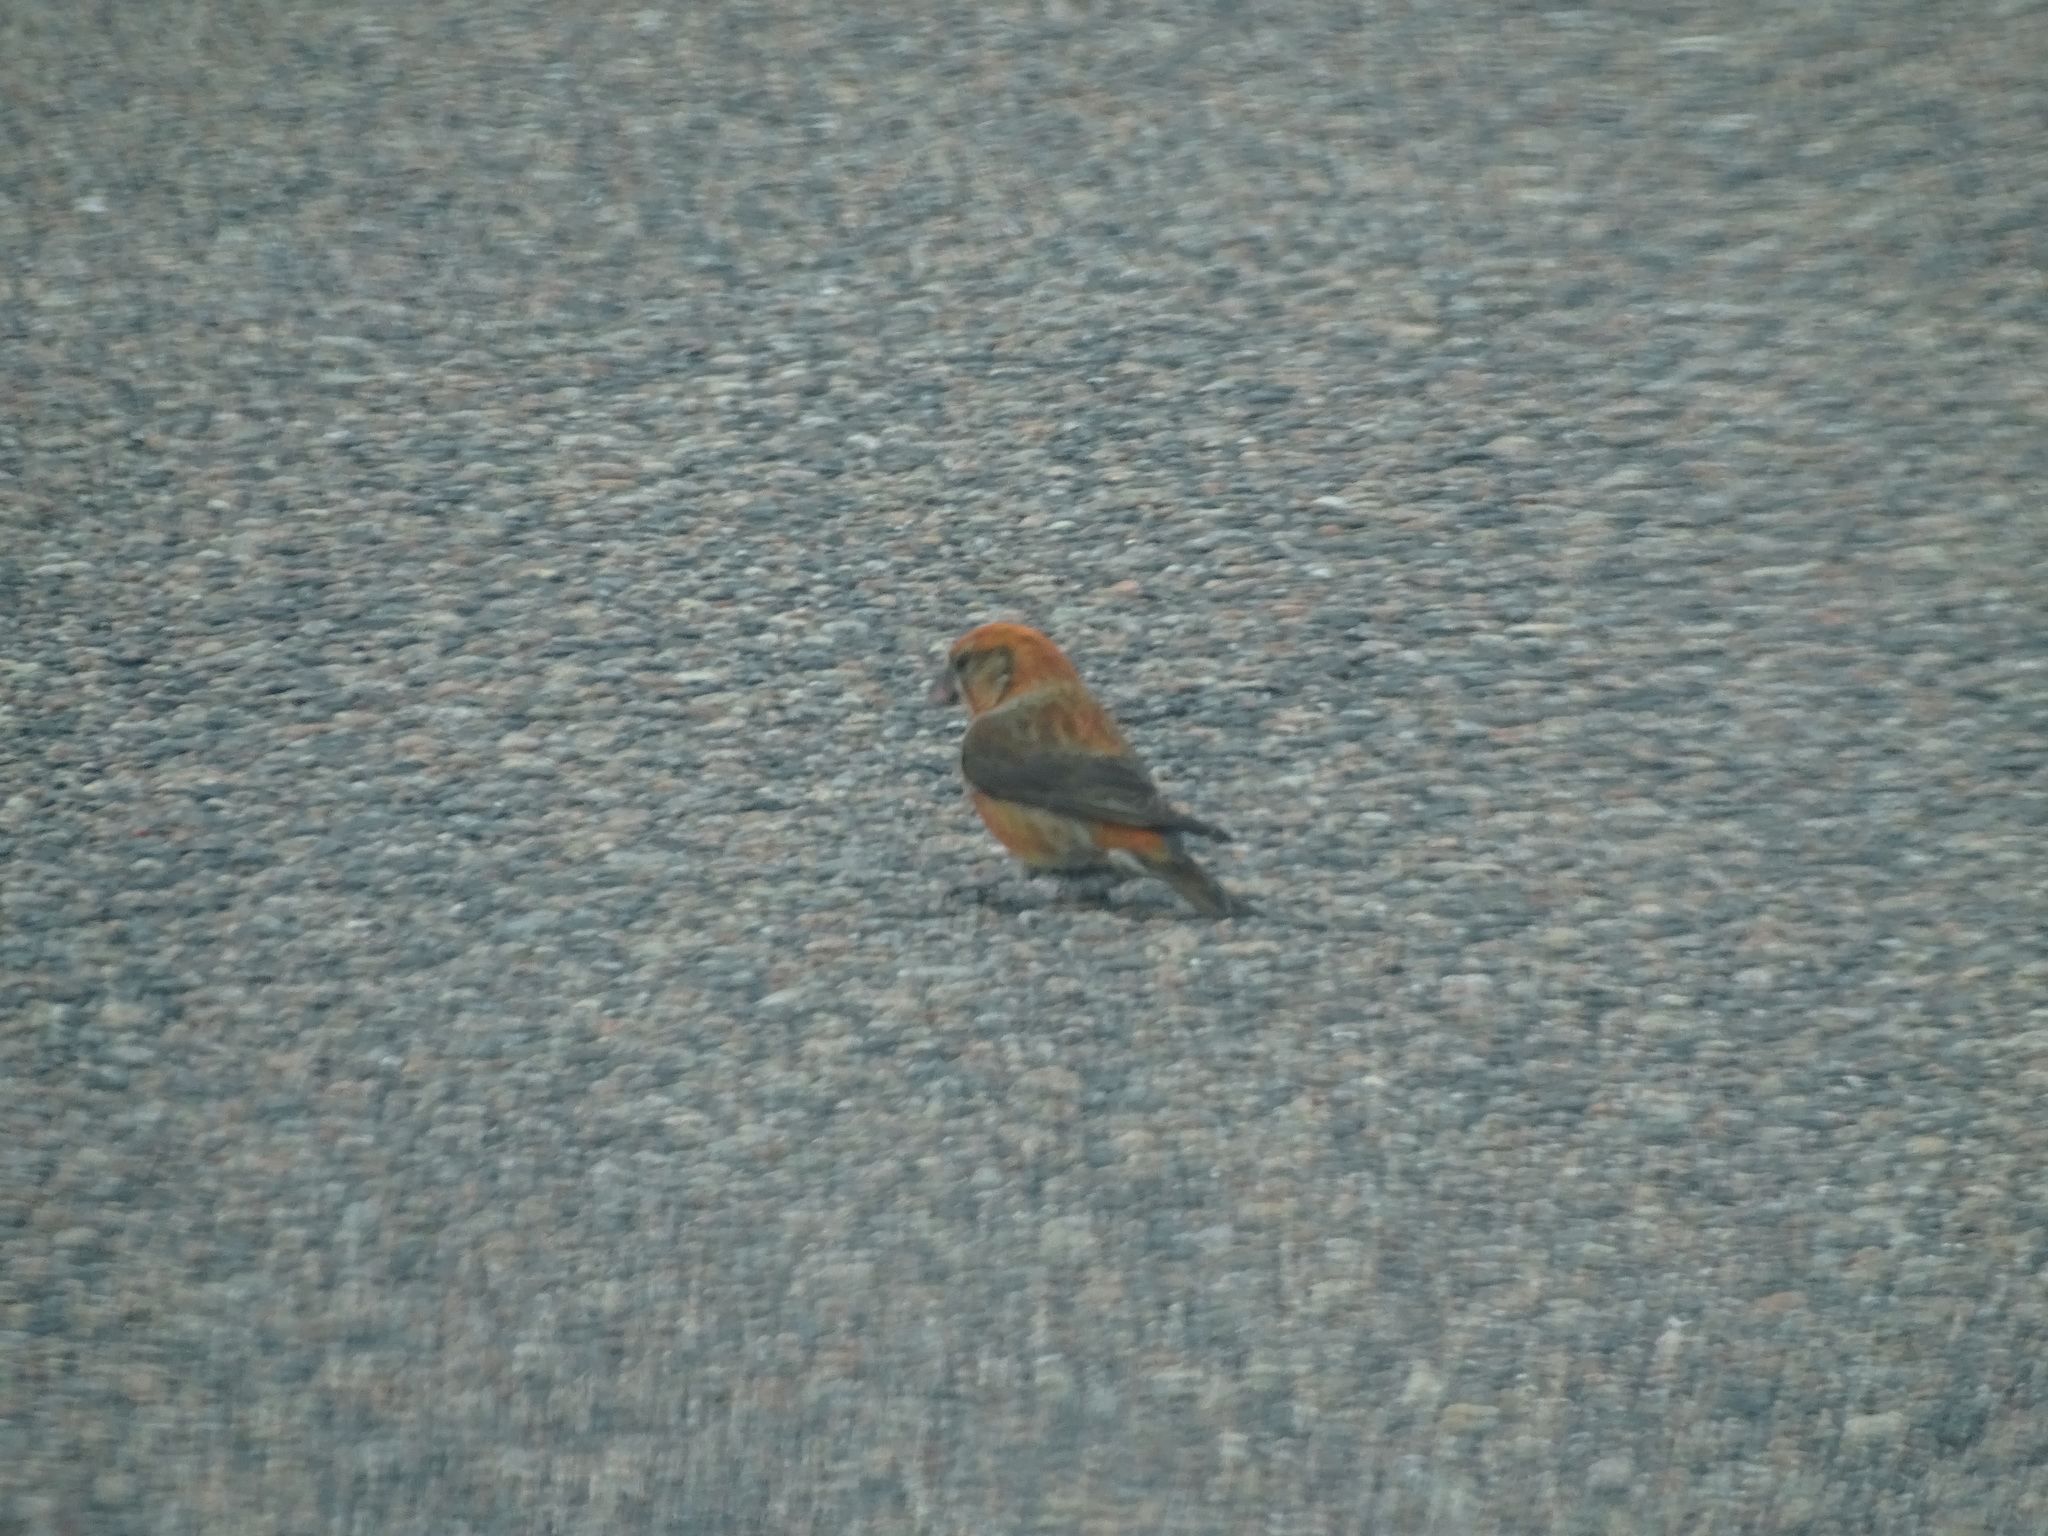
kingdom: Animalia
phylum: Chordata
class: Aves
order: Passeriformes
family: Fringillidae
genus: Loxia
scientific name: Loxia curvirostra
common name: Red crossbill
